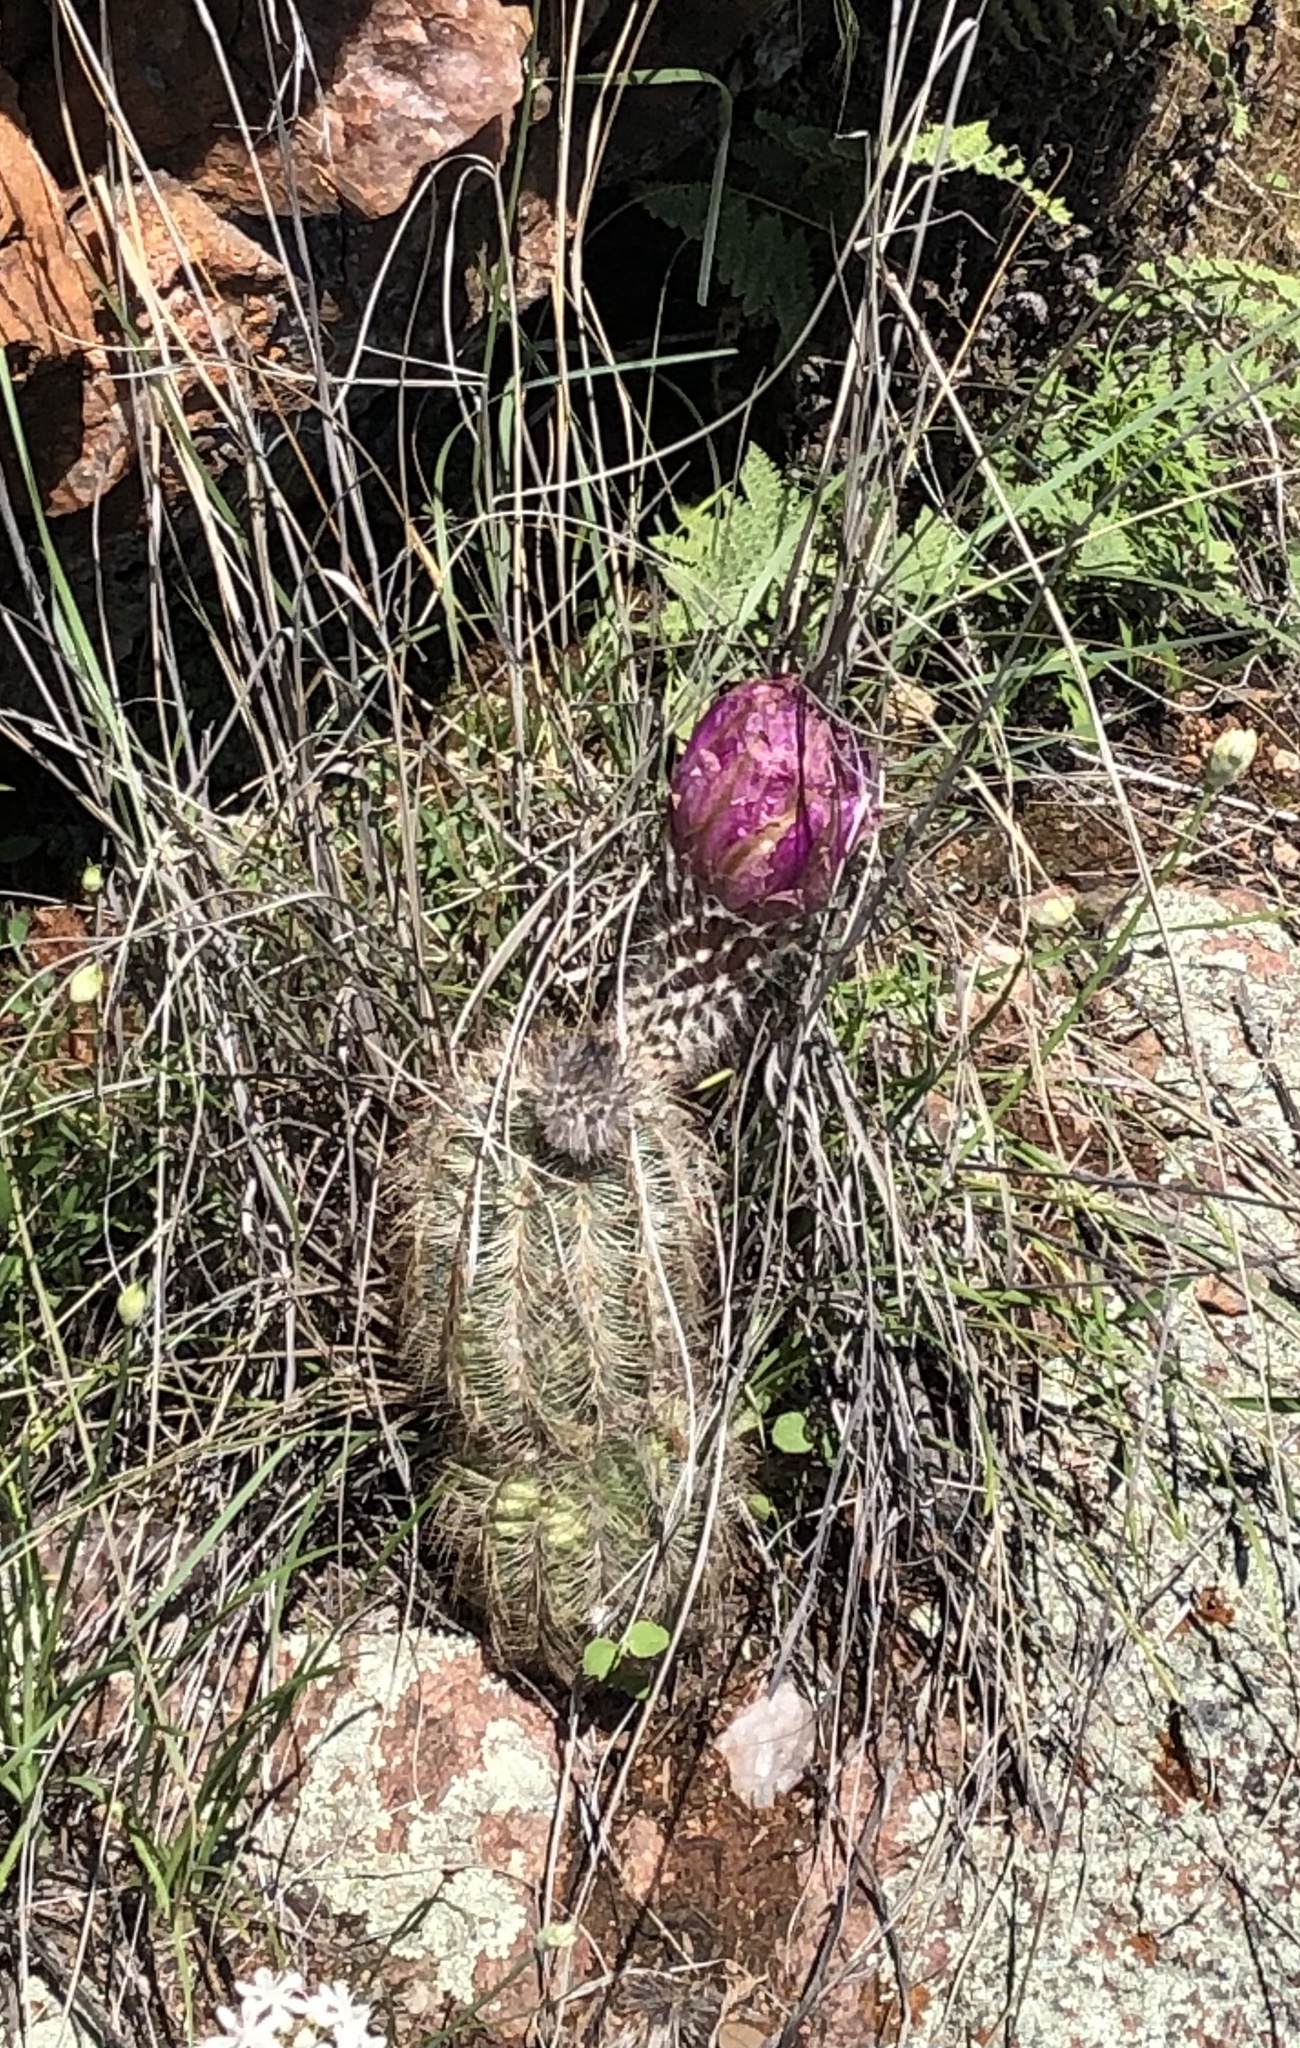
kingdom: Plantae
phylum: Tracheophyta
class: Magnoliopsida
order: Caryophyllales
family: Cactaceae
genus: Echinocereus
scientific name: Echinocereus reichenbachii
